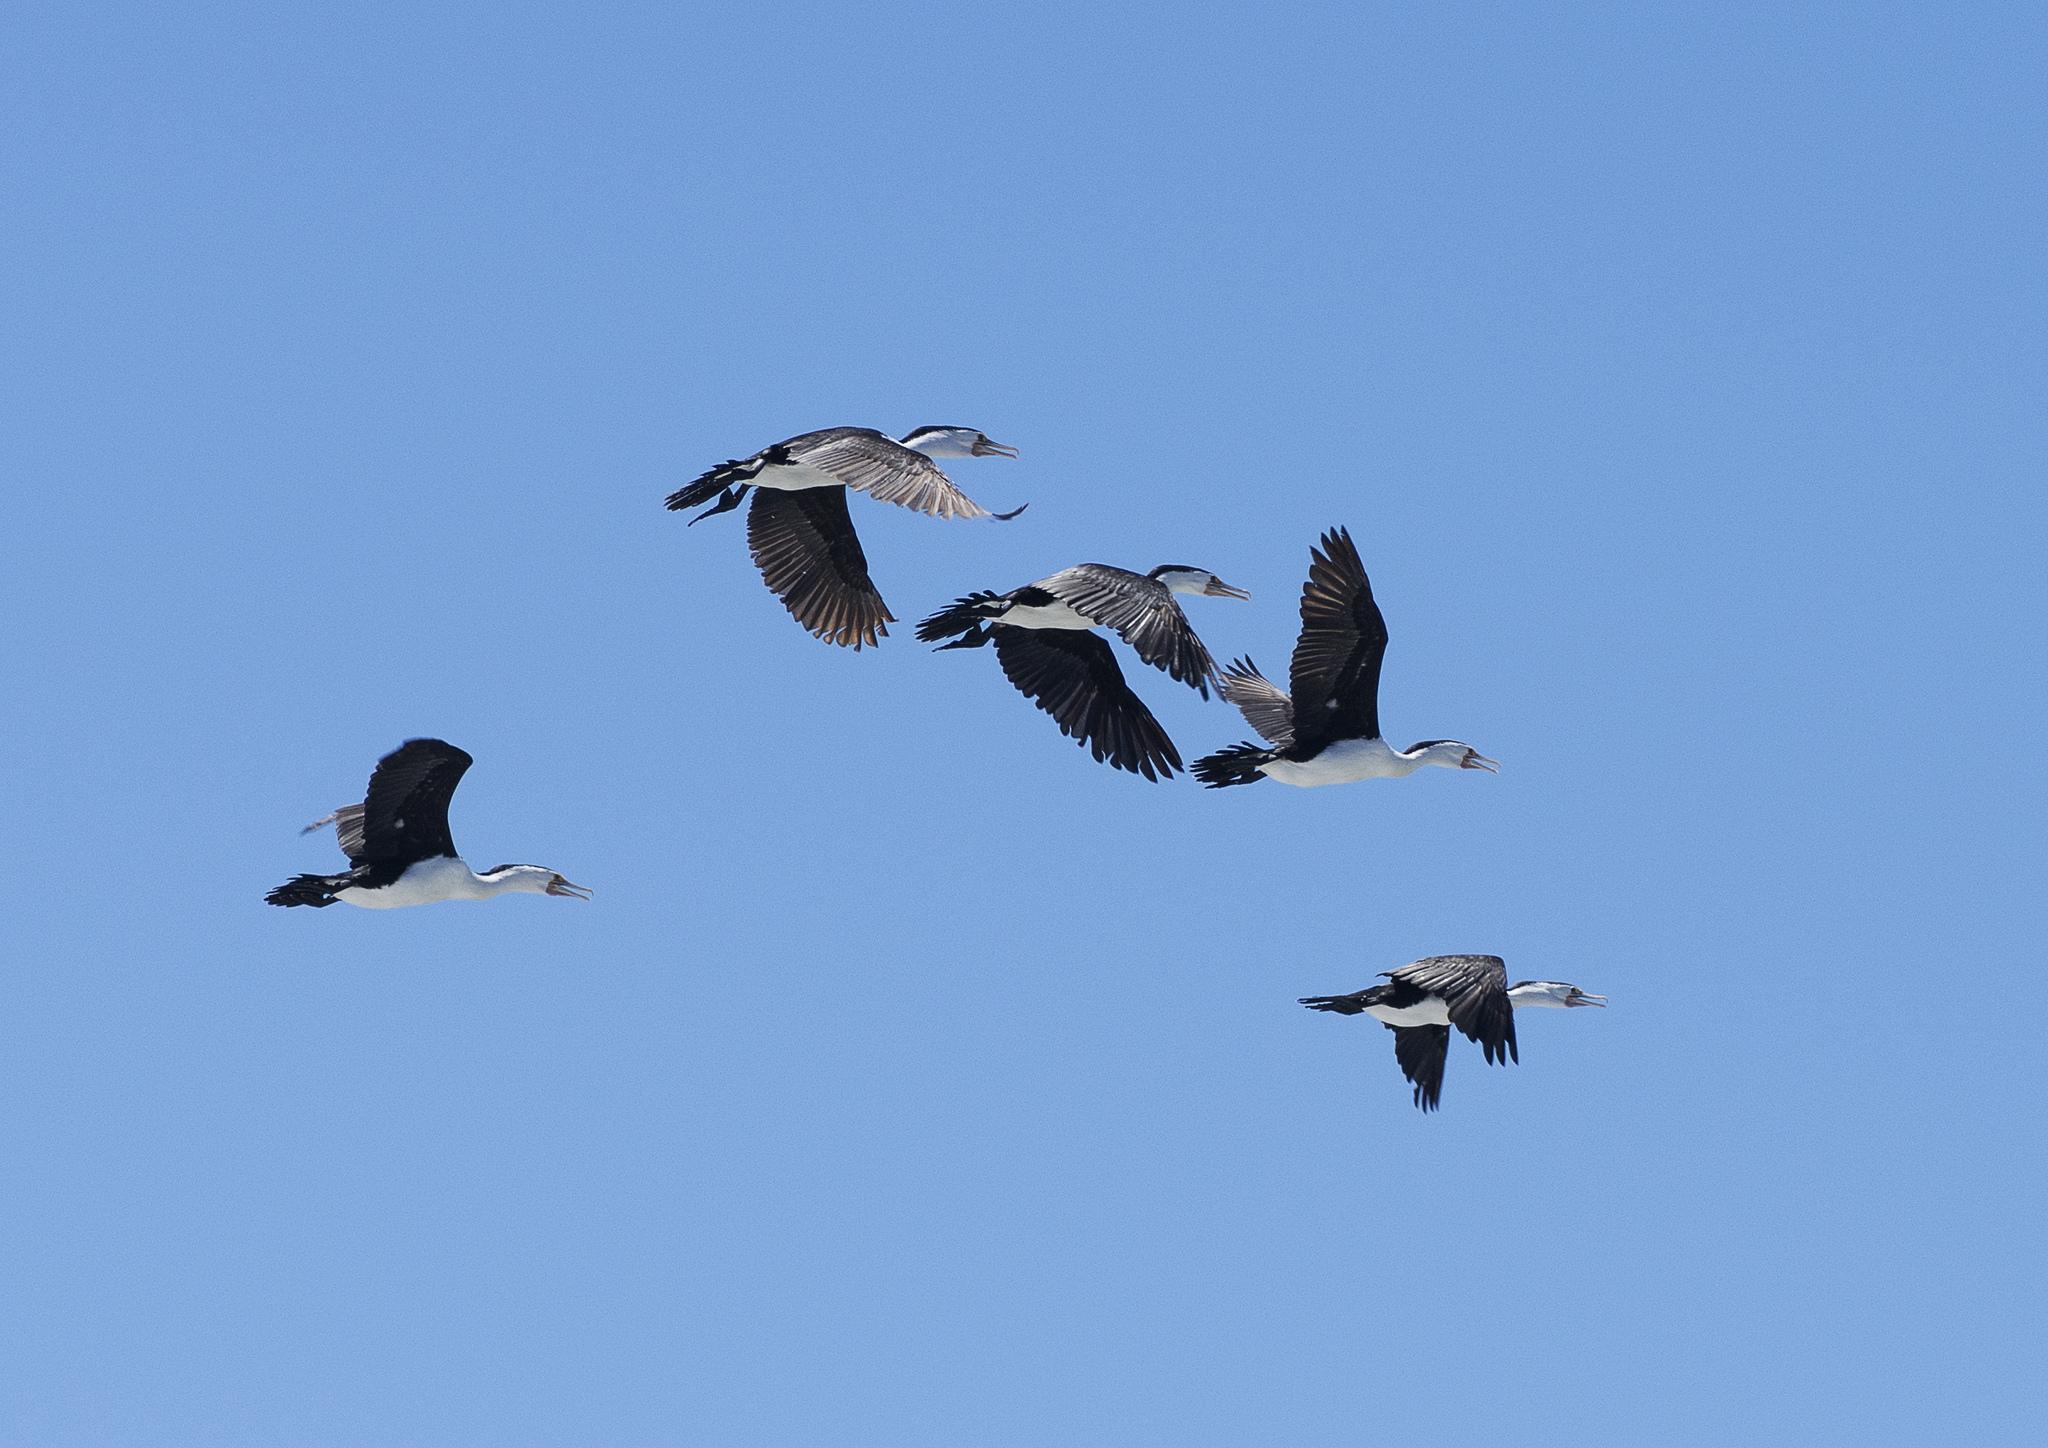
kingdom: Animalia
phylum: Chordata
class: Aves
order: Suliformes
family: Phalacrocoracidae
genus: Phalacrocorax
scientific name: Phalacrocorax varius
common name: Pied cormorant
